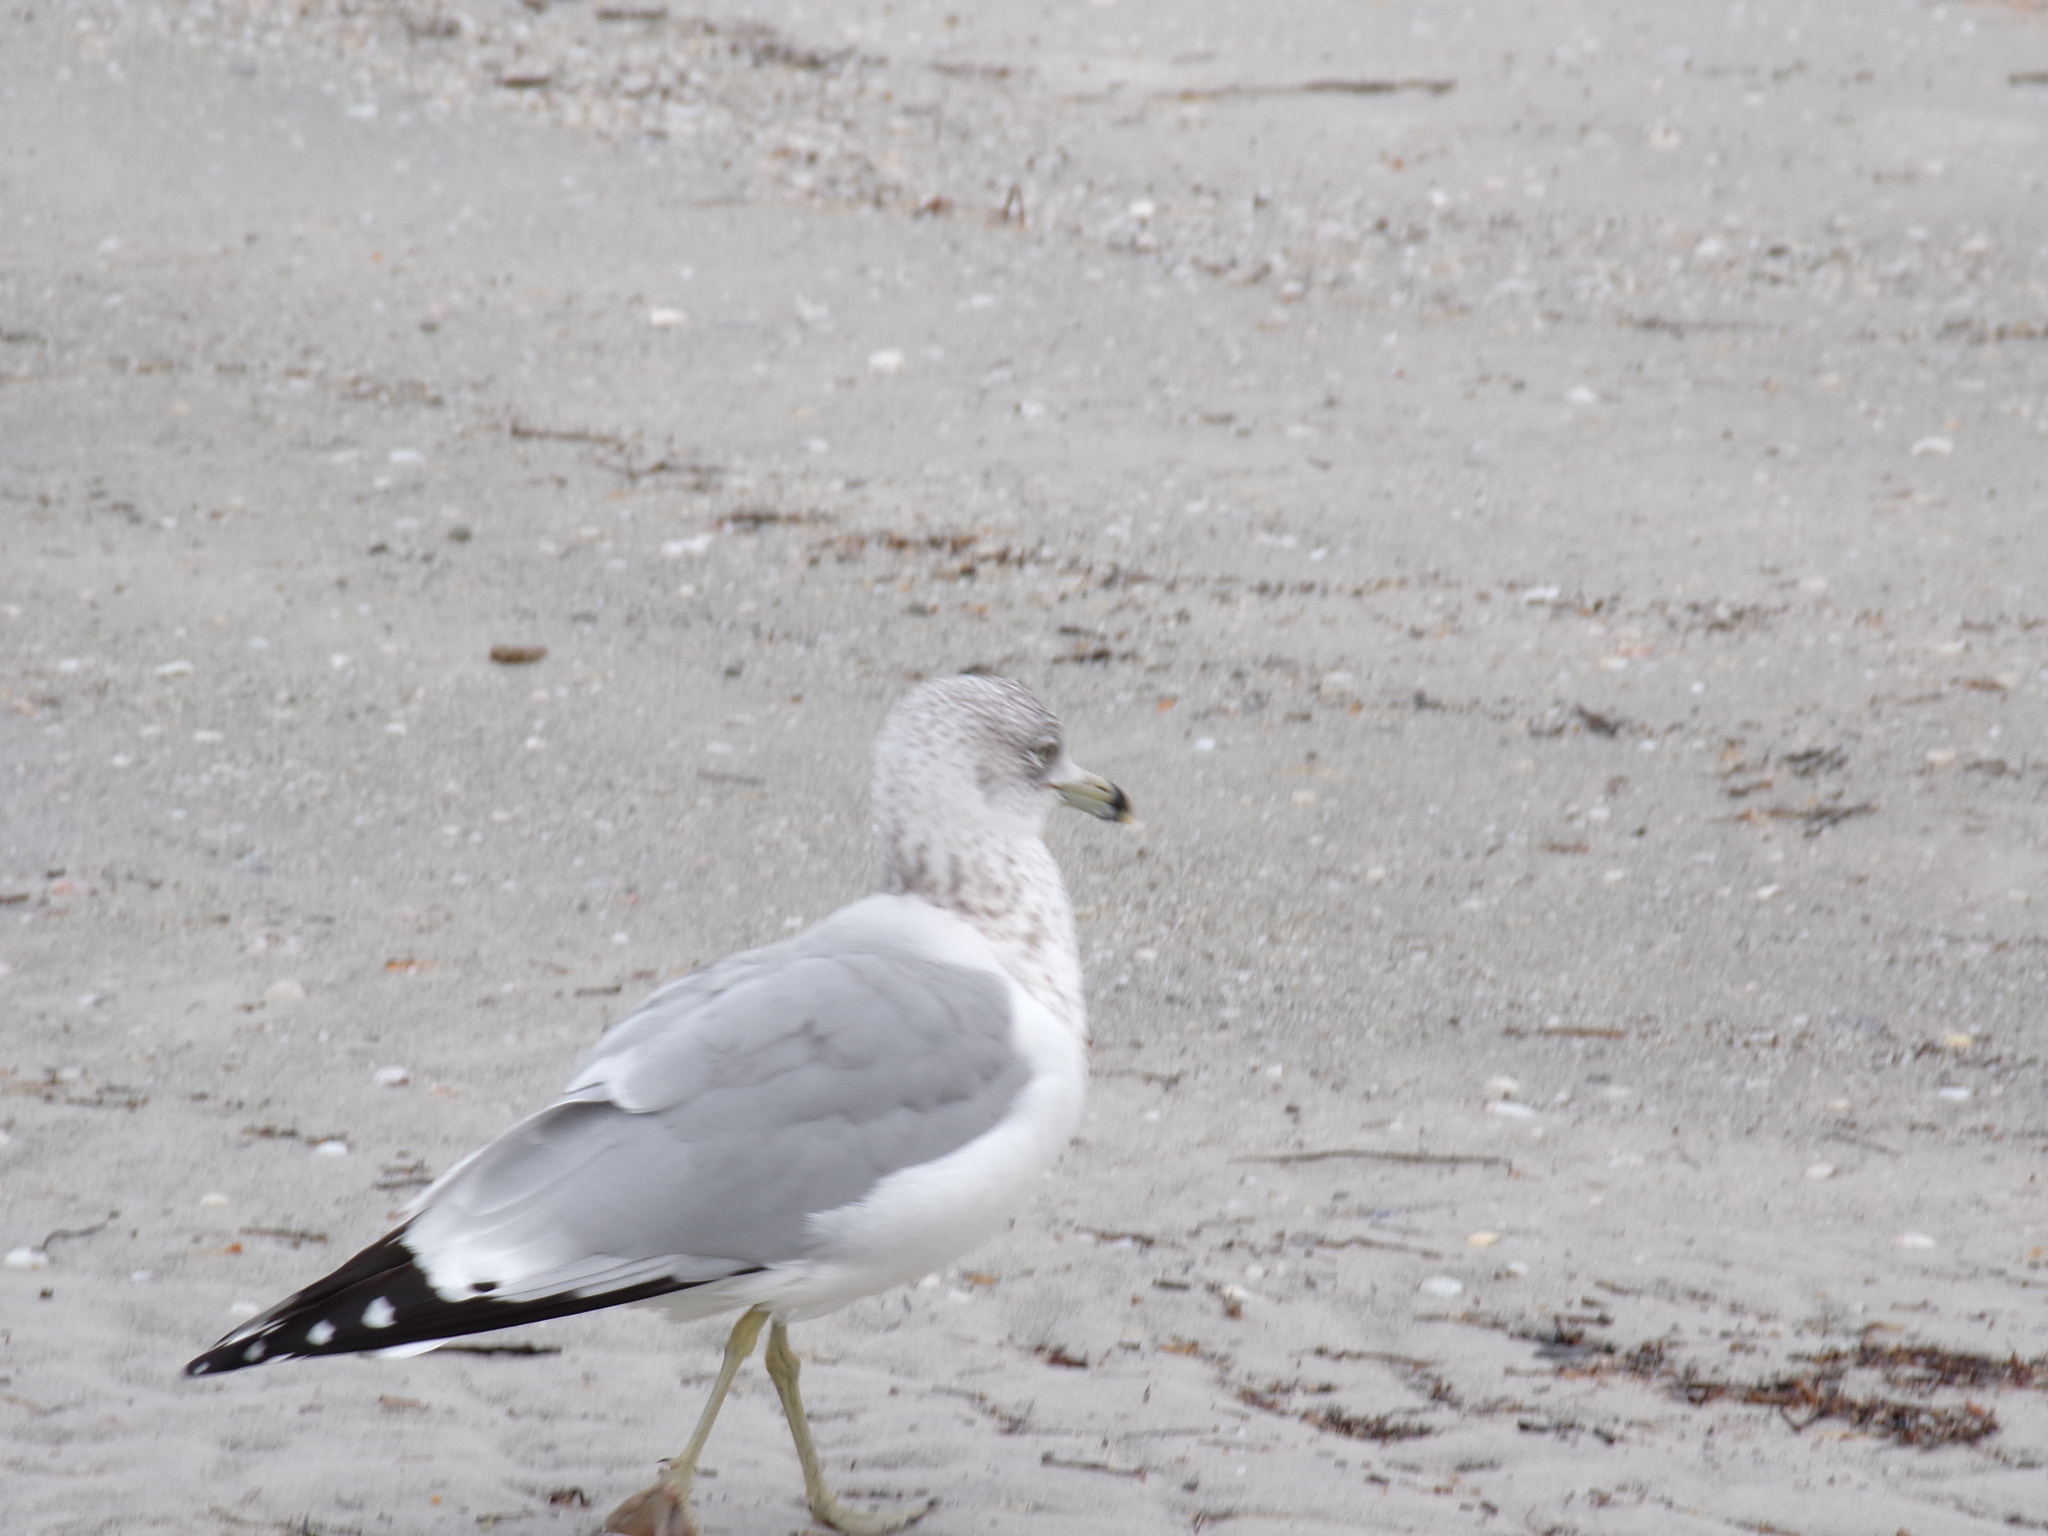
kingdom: Animalia
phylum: Chordata
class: Aves
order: Charadriiformes
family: Laridae
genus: Larus
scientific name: Larus delawarensis
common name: Ring-billed gull
